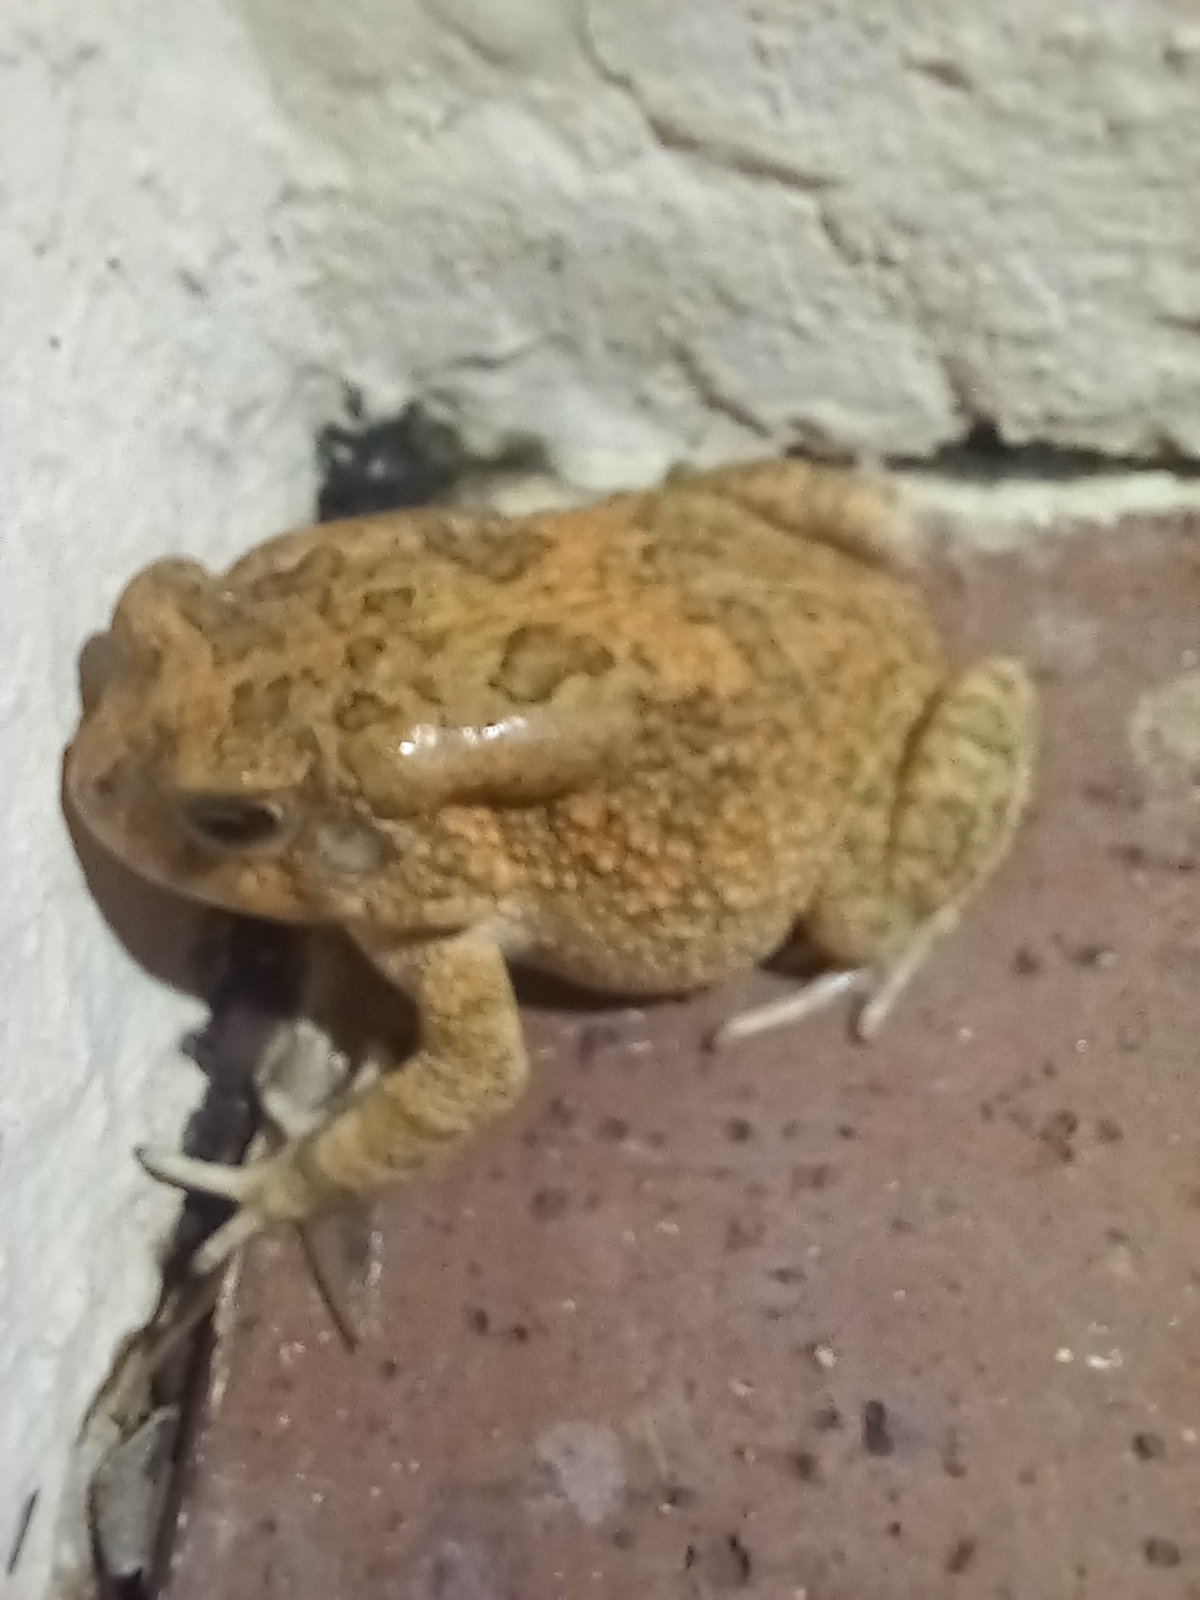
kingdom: Animalia
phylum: Chordata
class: Amphibia
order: Anura
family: Bufonidae
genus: Sclerophrys
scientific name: Sclerophrys gutturalis
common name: African common toad
